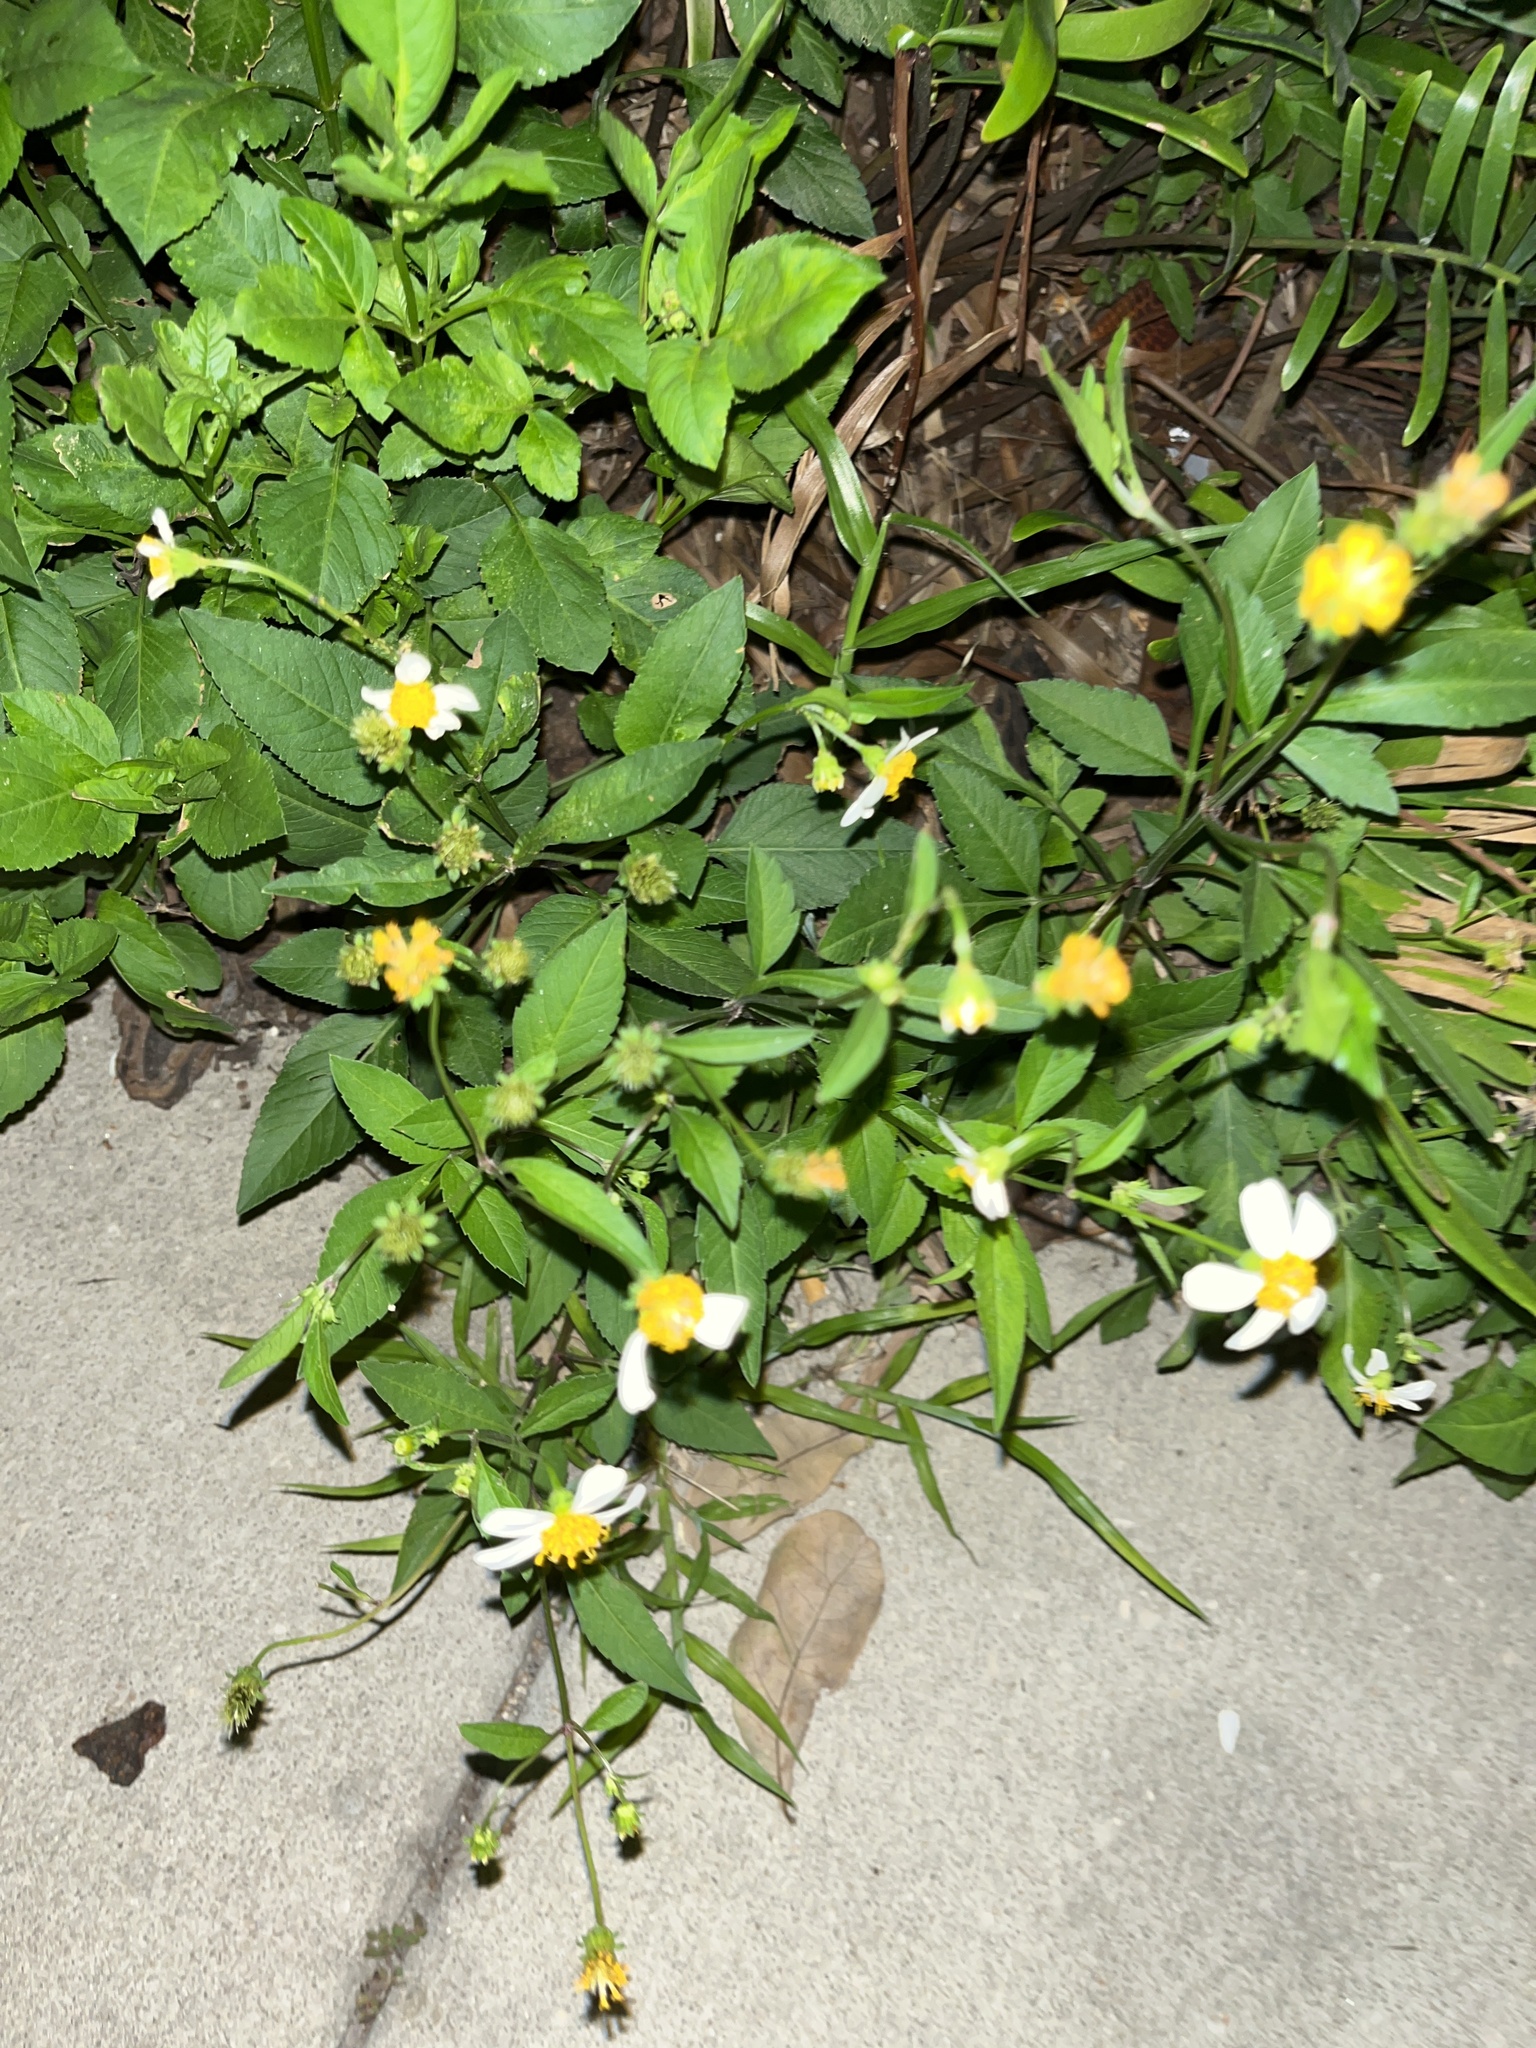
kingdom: Plantae
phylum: Tracheophyta
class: Magnoliopsida
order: Asterales
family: Asteraceae
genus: Bidens
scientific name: Bidens alba
